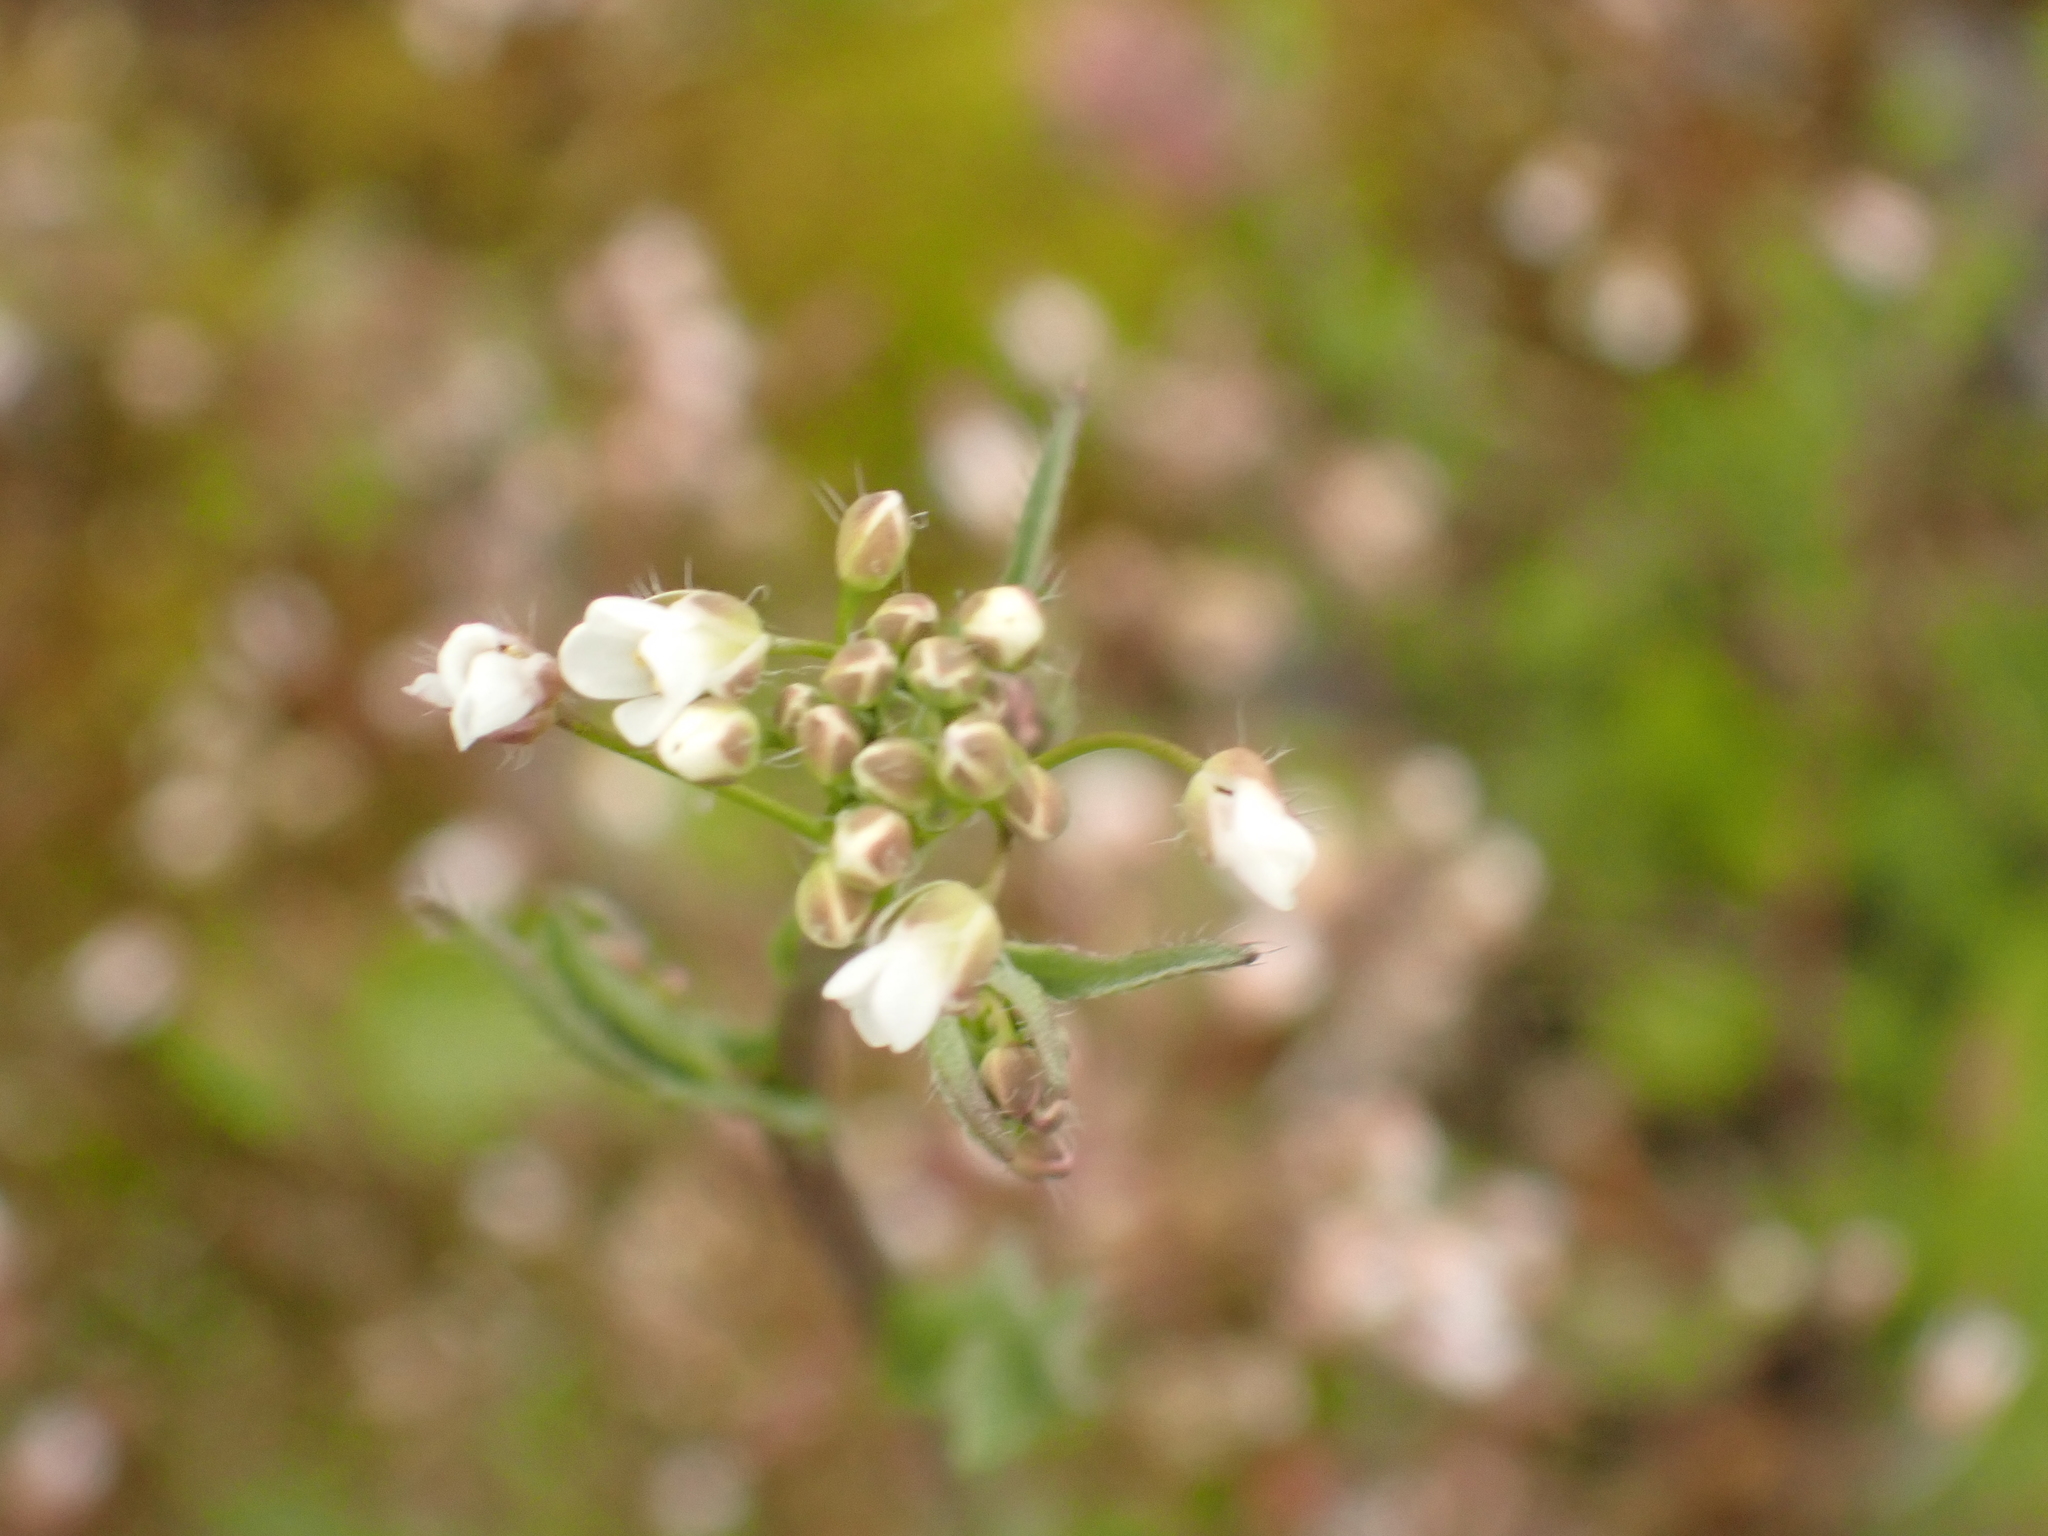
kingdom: Plantae
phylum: Tracheophyta
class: Magnoliopsida
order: Brassicales
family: Brassicaceae
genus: Cardamine
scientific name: Cardamine pratensis
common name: Cuckoo flower
